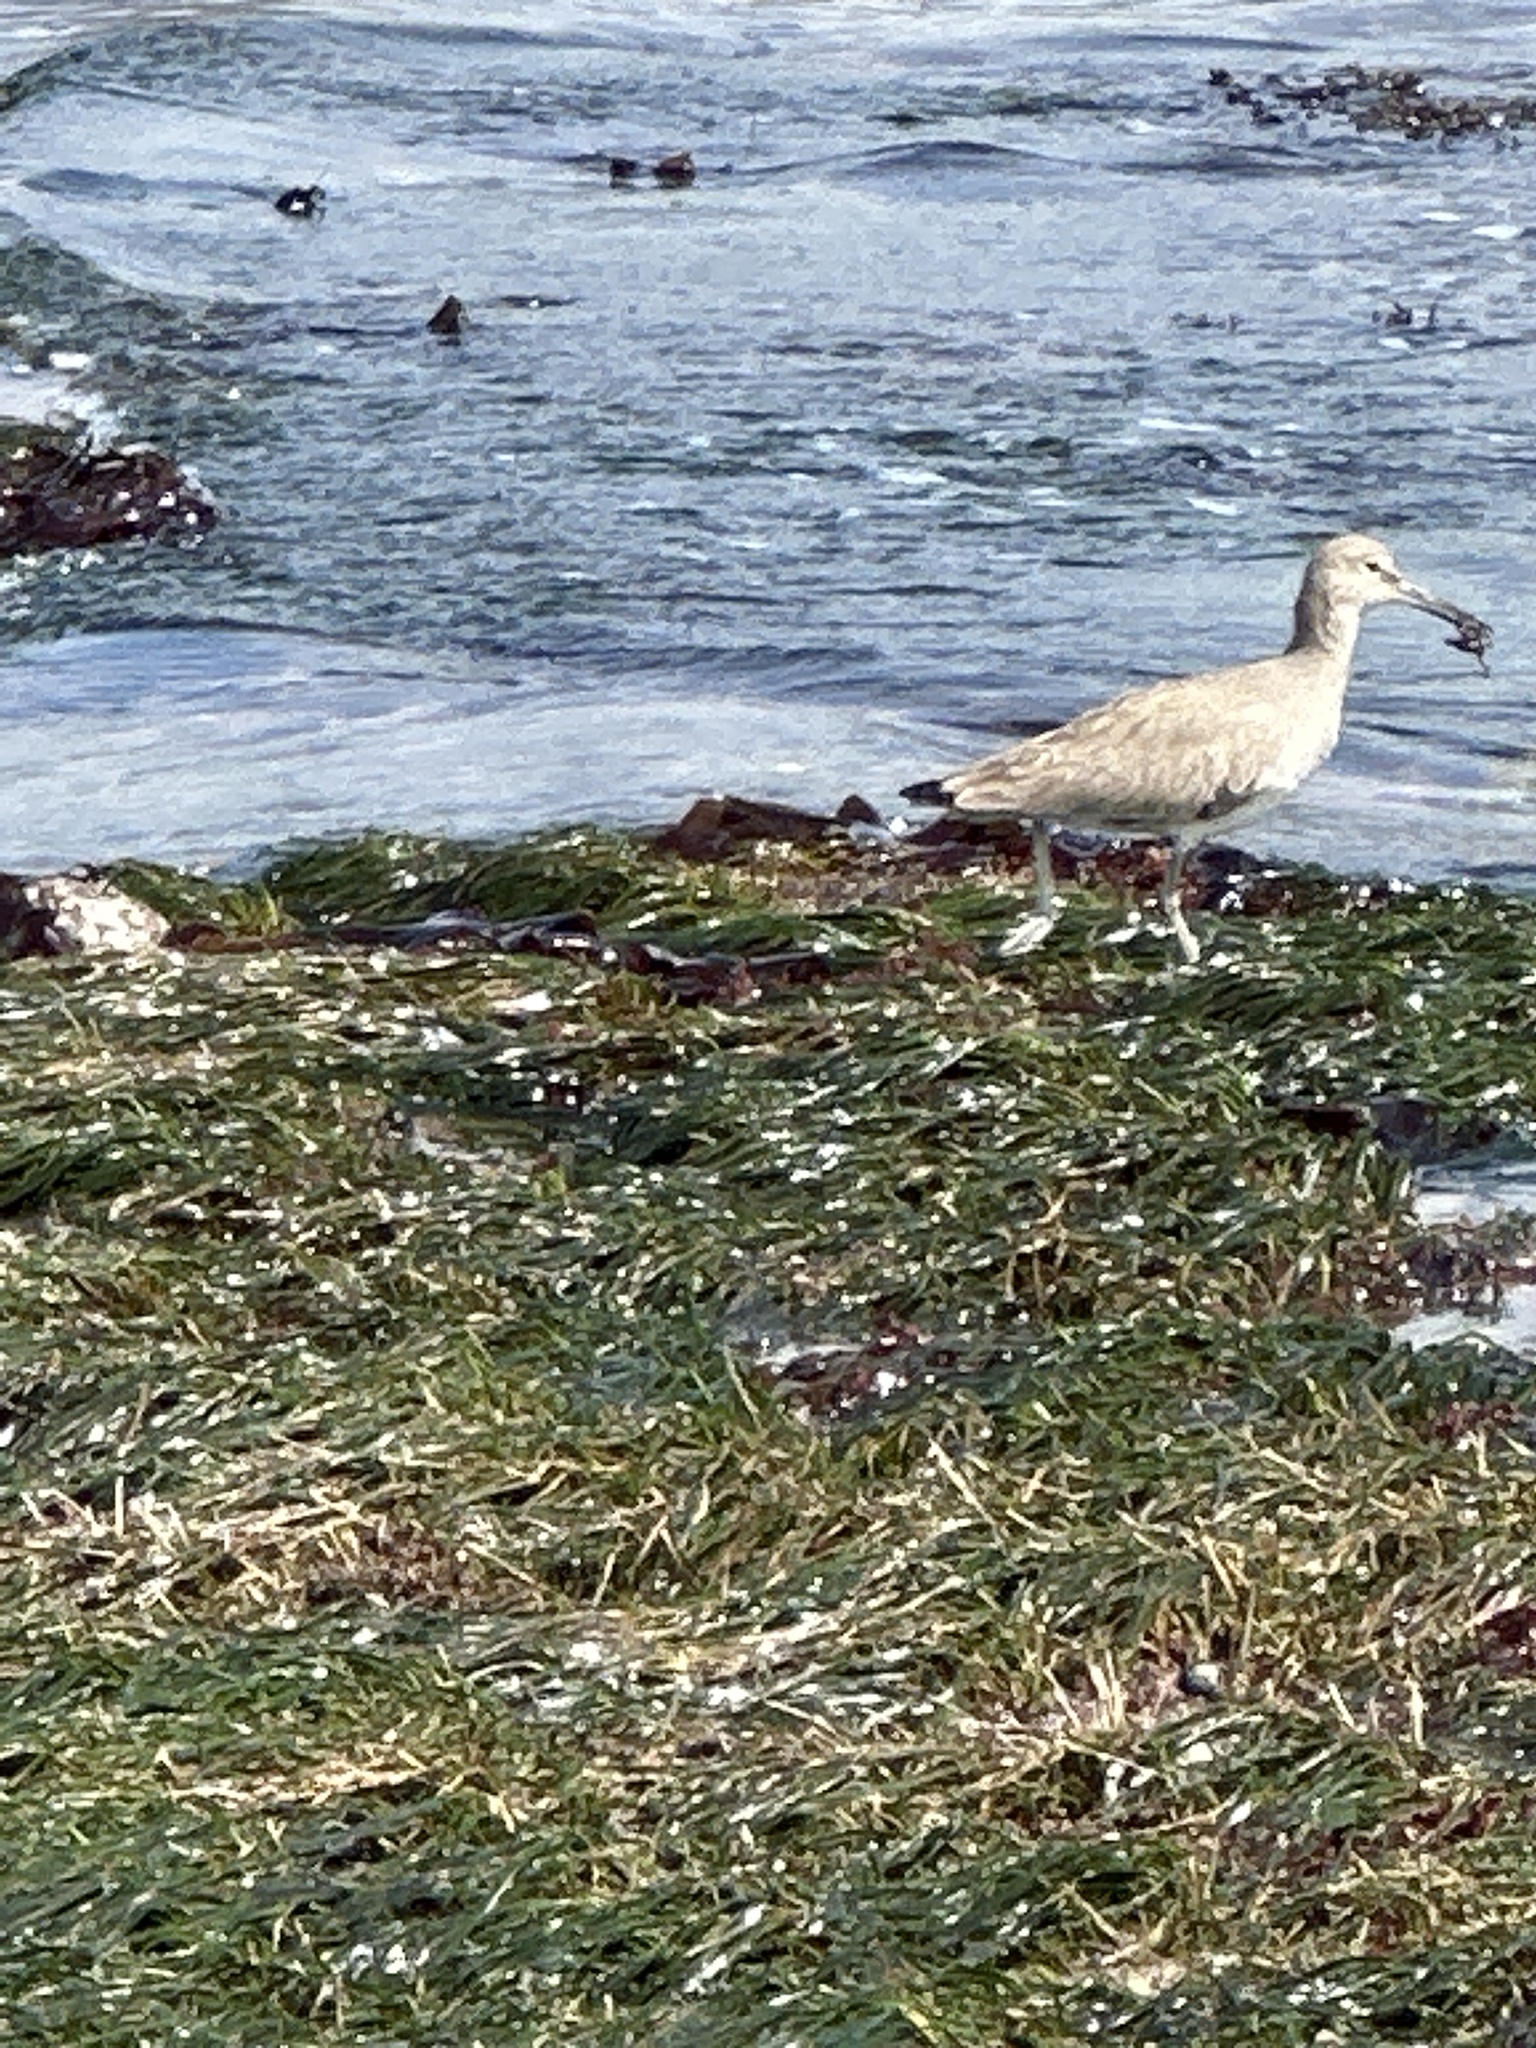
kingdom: Animalia
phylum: Chordata
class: Aves
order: Charadriiformes
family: Scolopacidae
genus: Tringa
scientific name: Tringa semipalmata
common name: Willet
